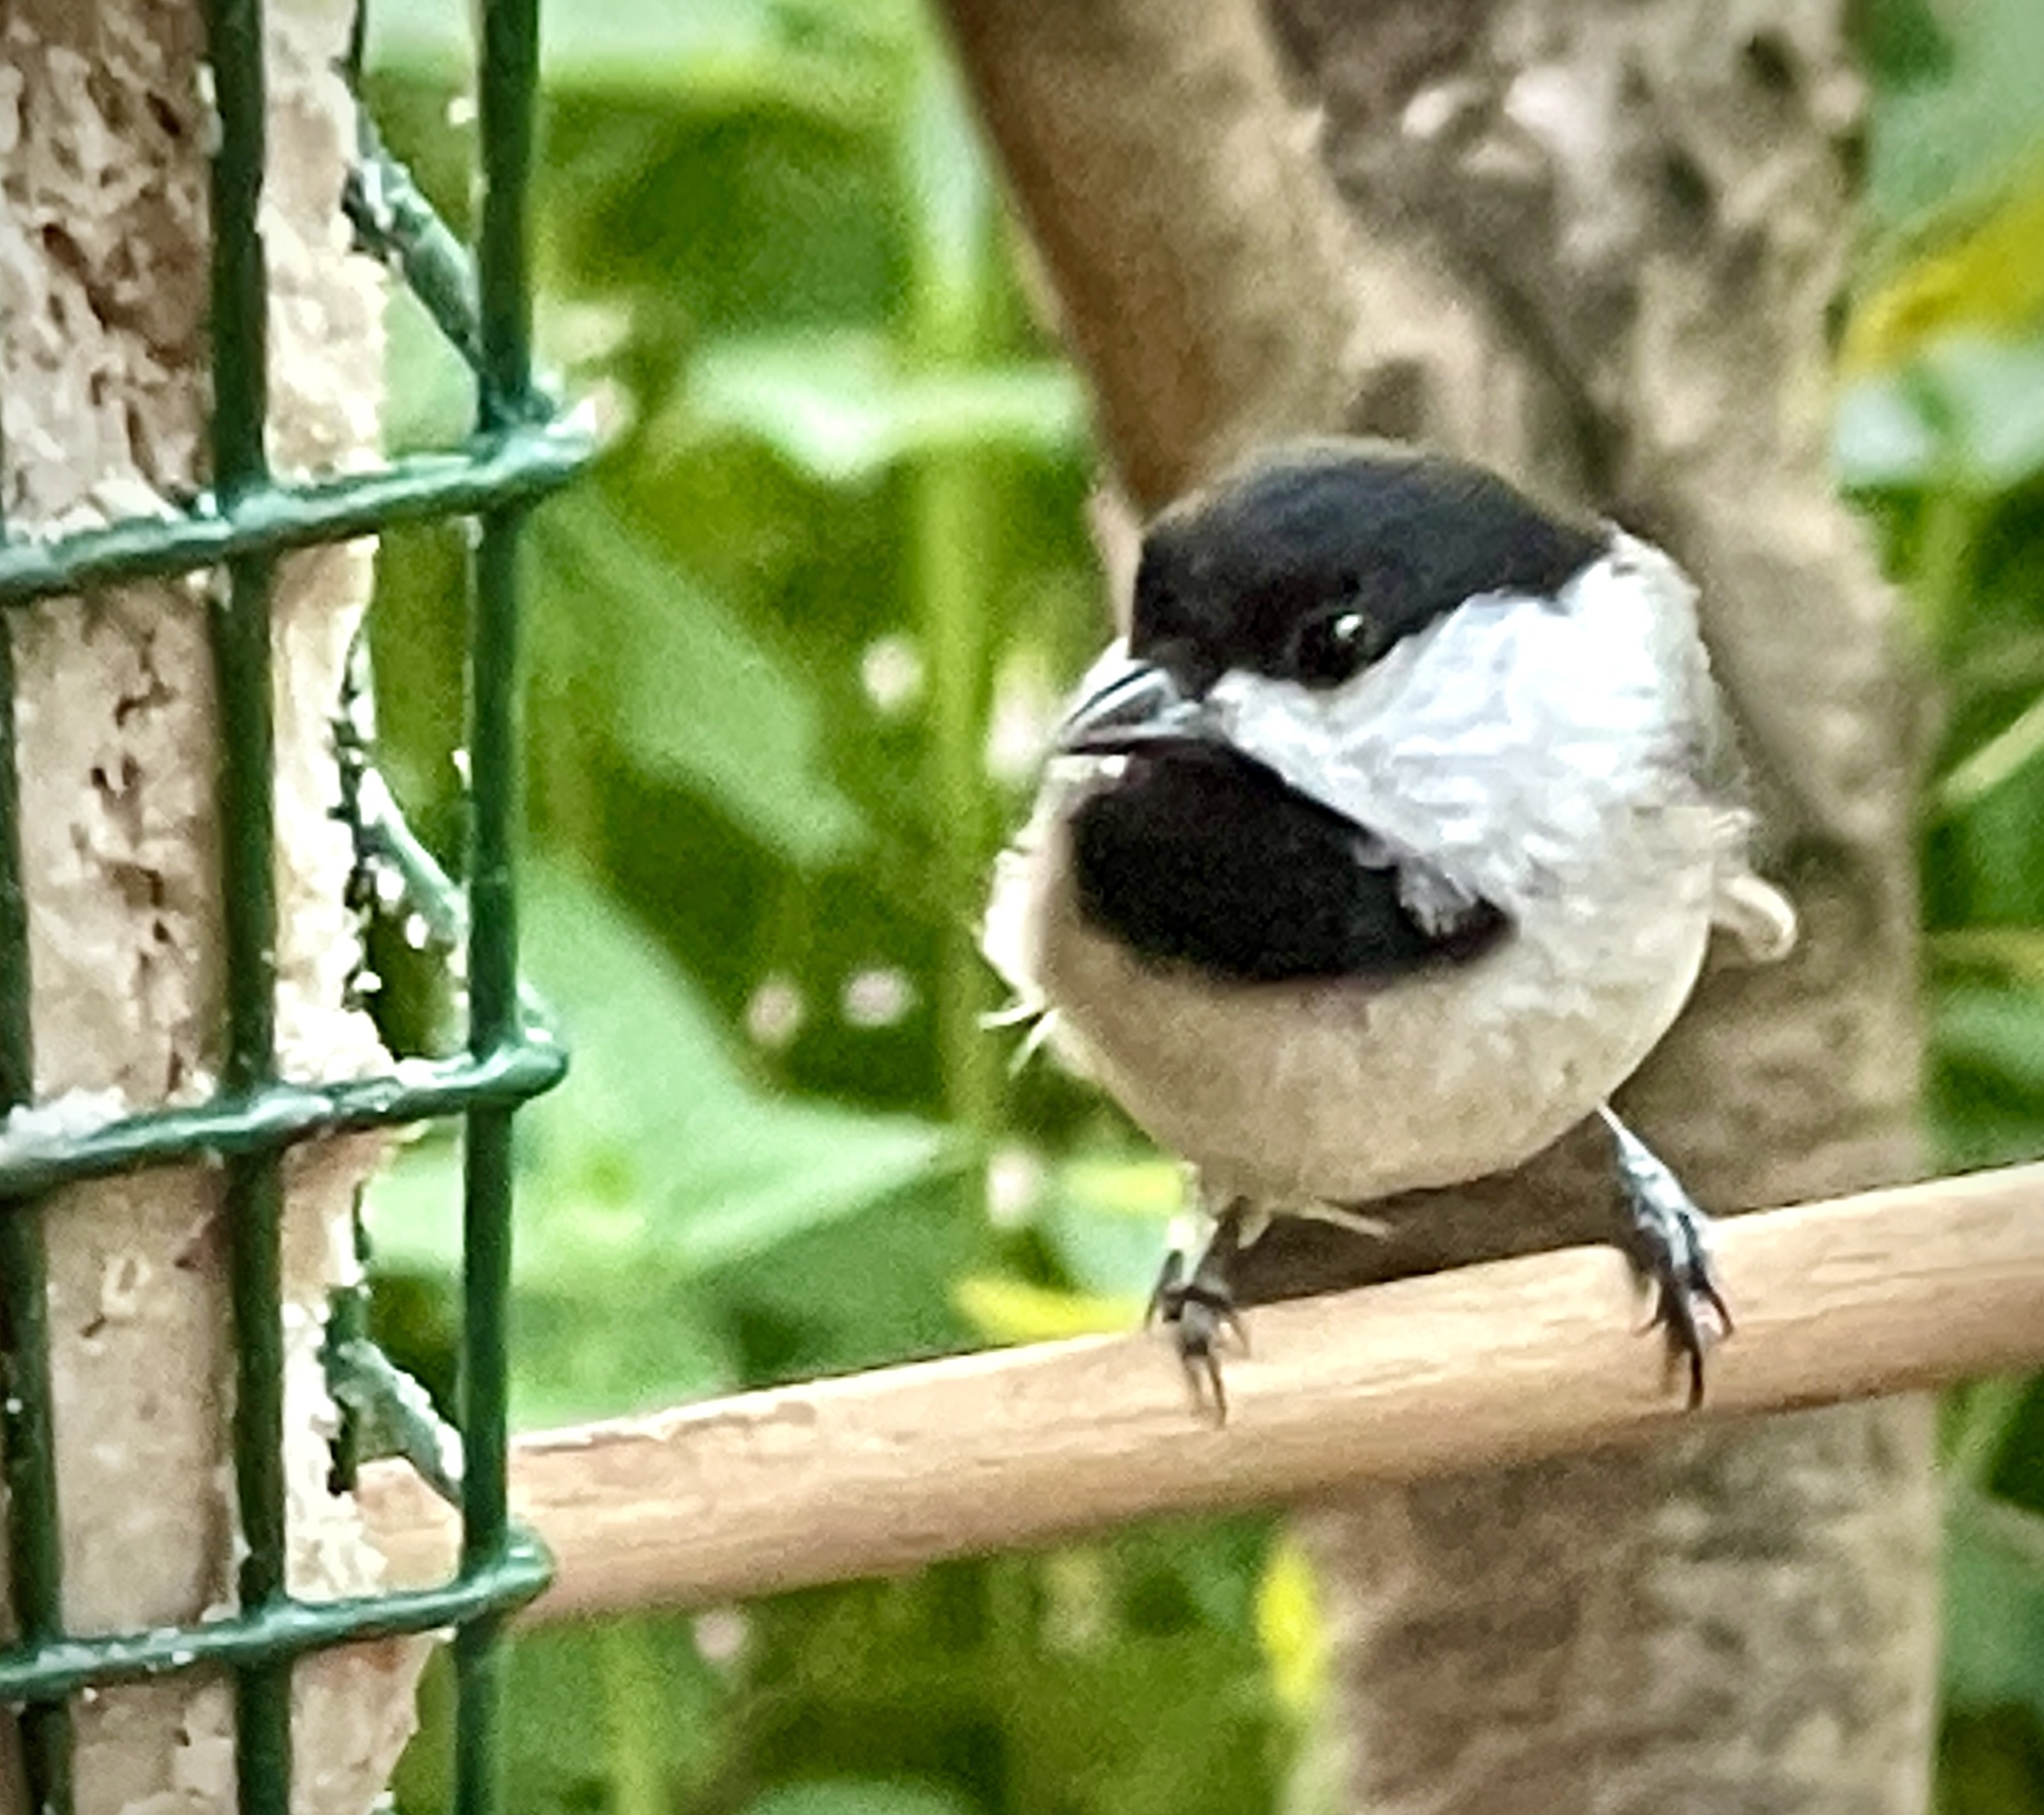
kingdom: Animalia
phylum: Chordata
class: Aves
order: Passeriformes
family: Paridae
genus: Poecile
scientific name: Poecile carolinensis
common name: Carolina chickadee
